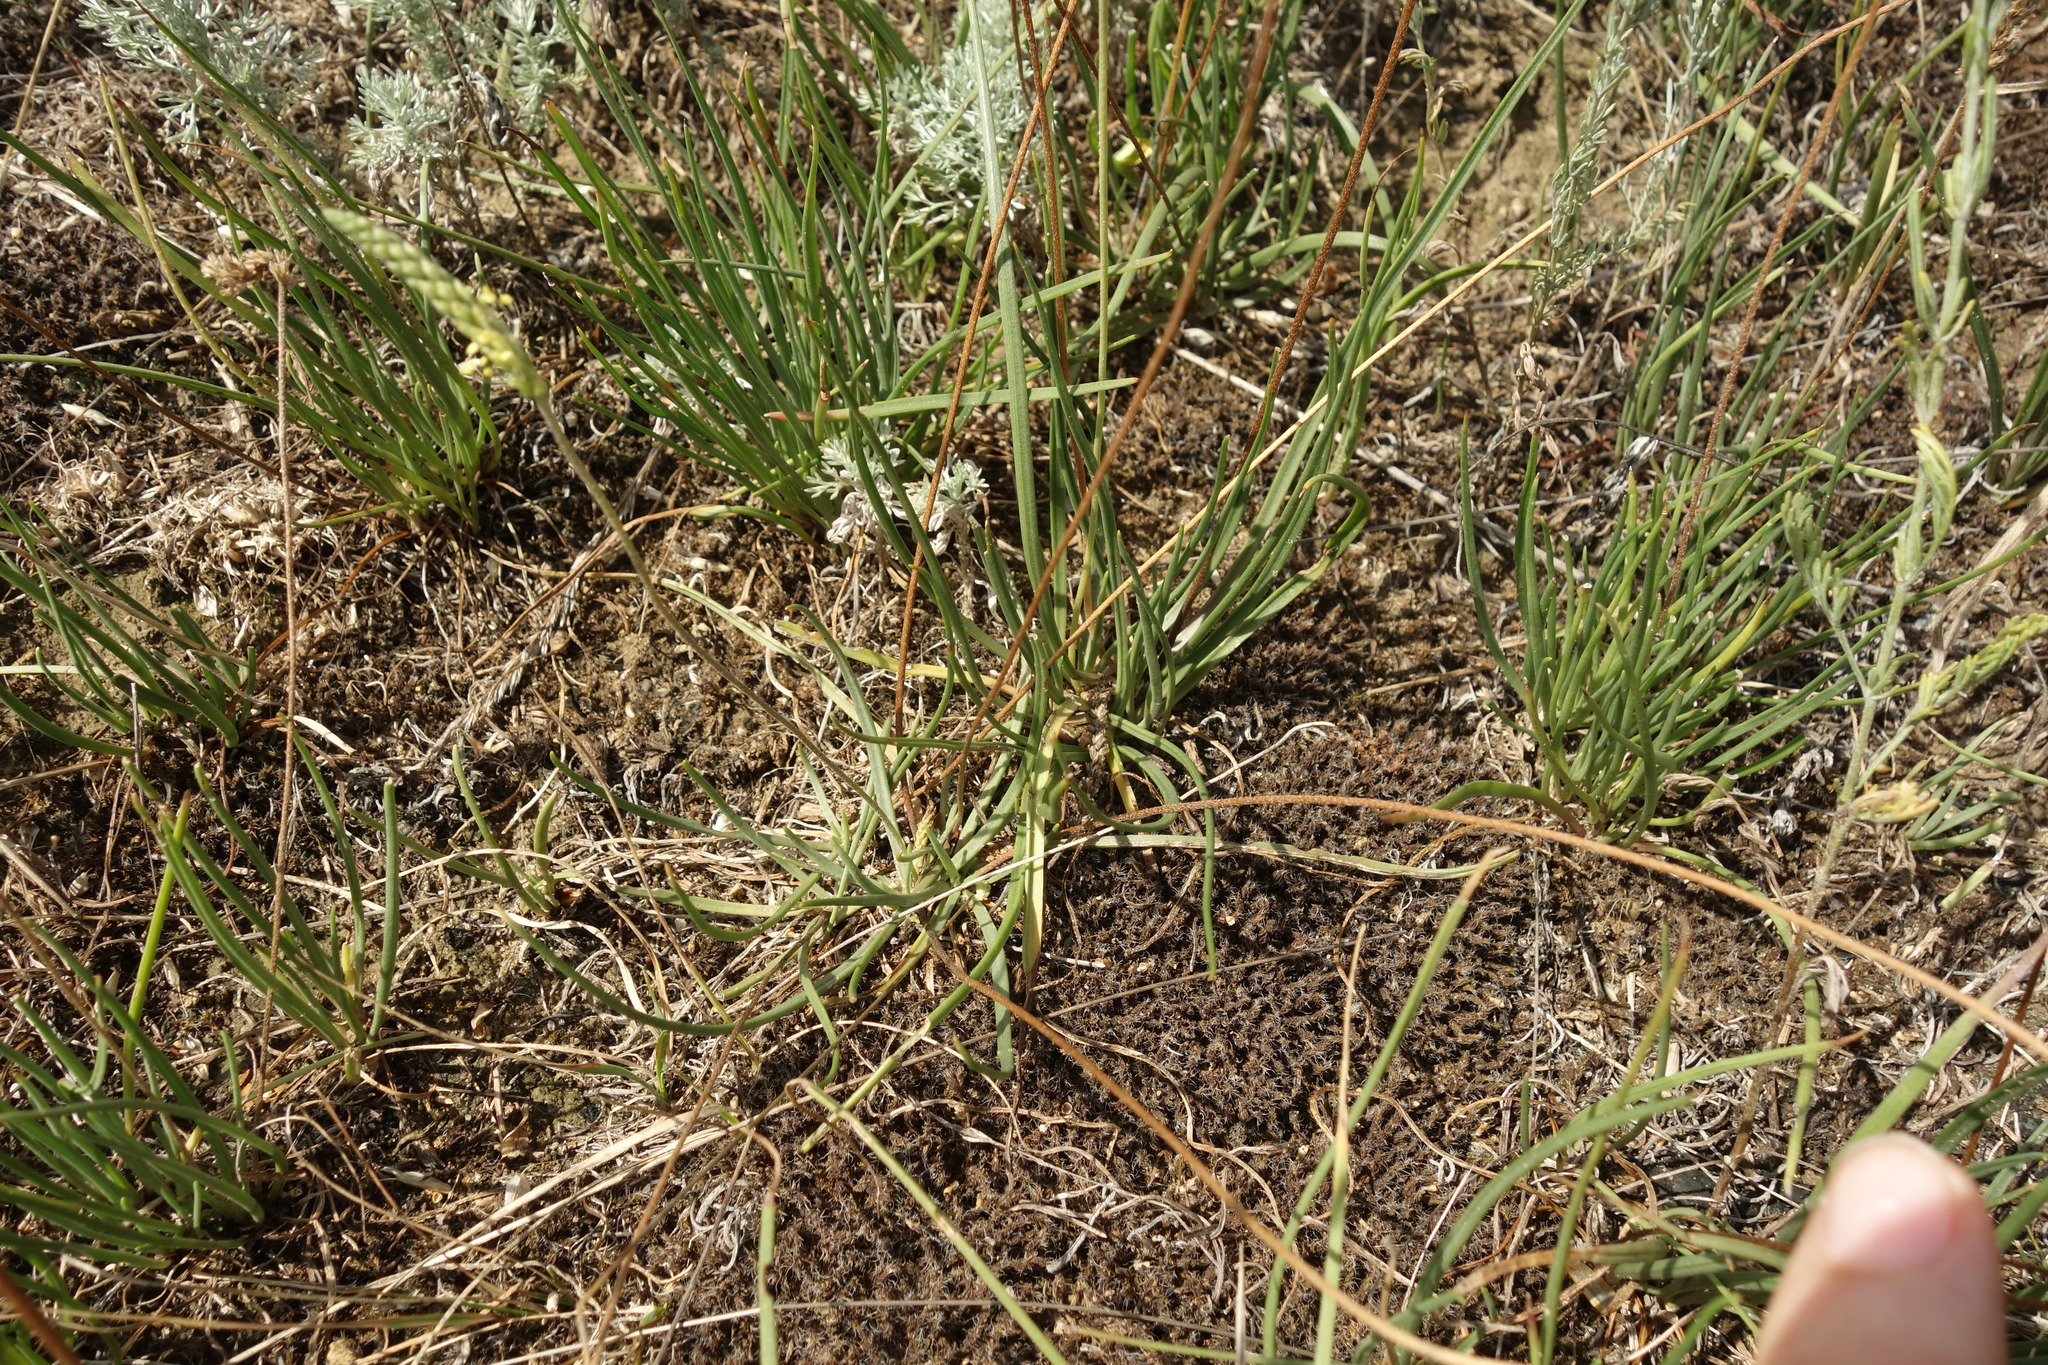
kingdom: Plantae
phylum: Tracheophyta
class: Magnoliopsida
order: Lamiales
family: Plantaginaceae
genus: Plantago
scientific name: Plantago salsa
